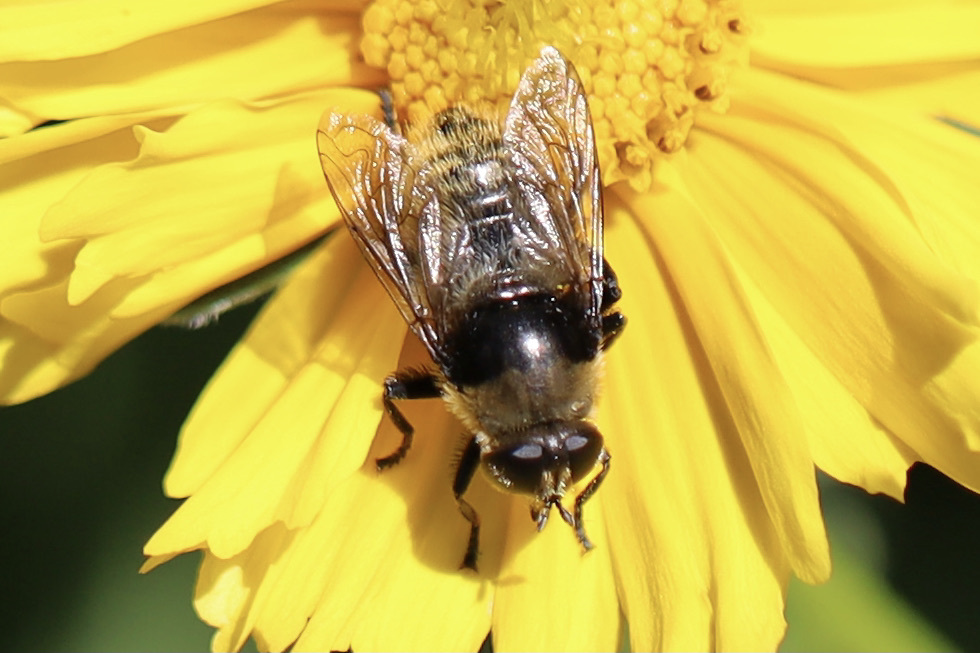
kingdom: Animalia
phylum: Arthropoda
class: Insecta
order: Diptera
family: Syrphidae
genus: Merodon
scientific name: Merodon equestris
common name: Greater bulb-fly
